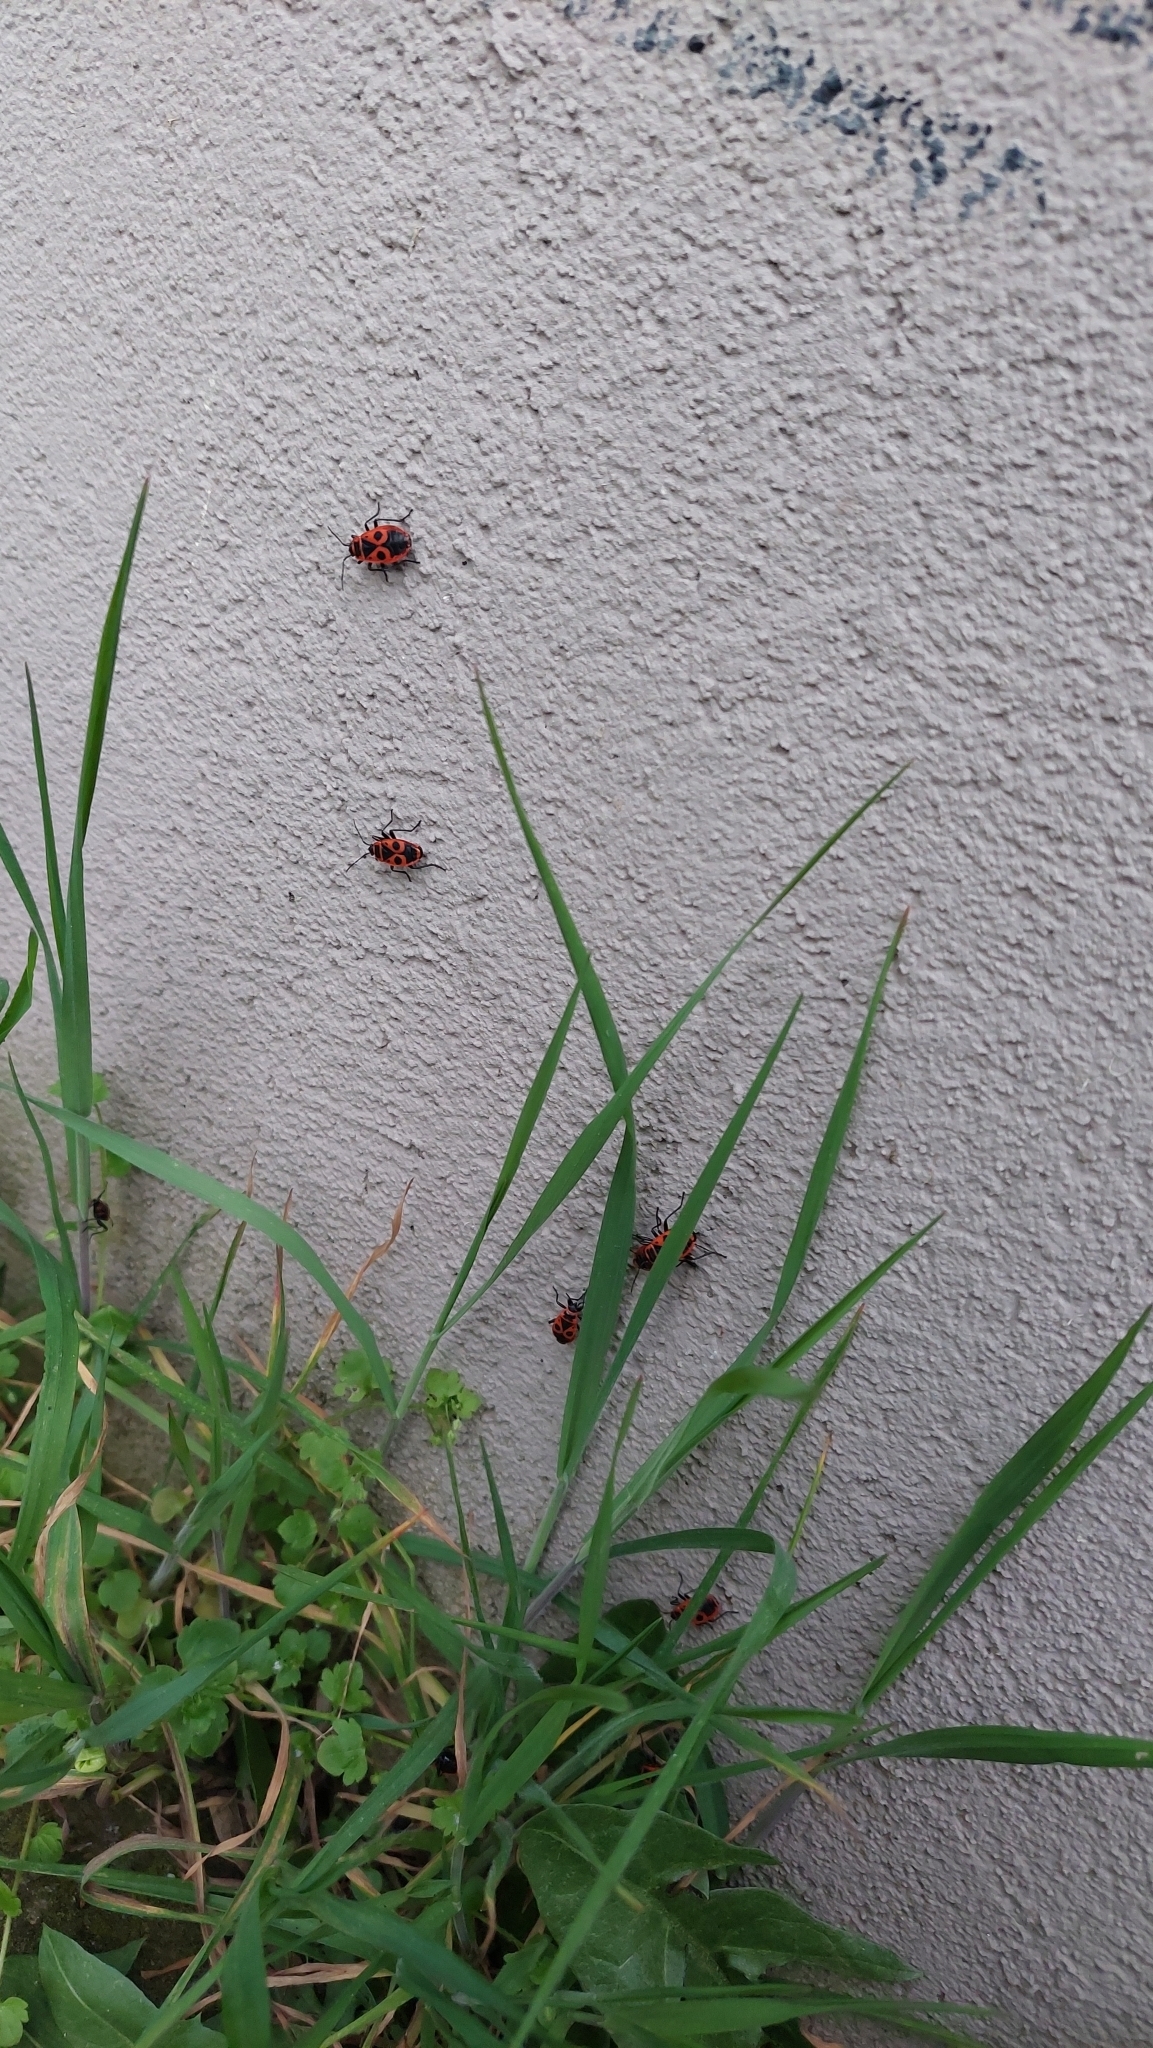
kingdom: Animalia
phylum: Arthropoda
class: Insecta
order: Hemiptera
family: Pyrrhocoridae
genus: Pyrrhocoris
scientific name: Pyrrhocoris apterus
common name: Firebug
